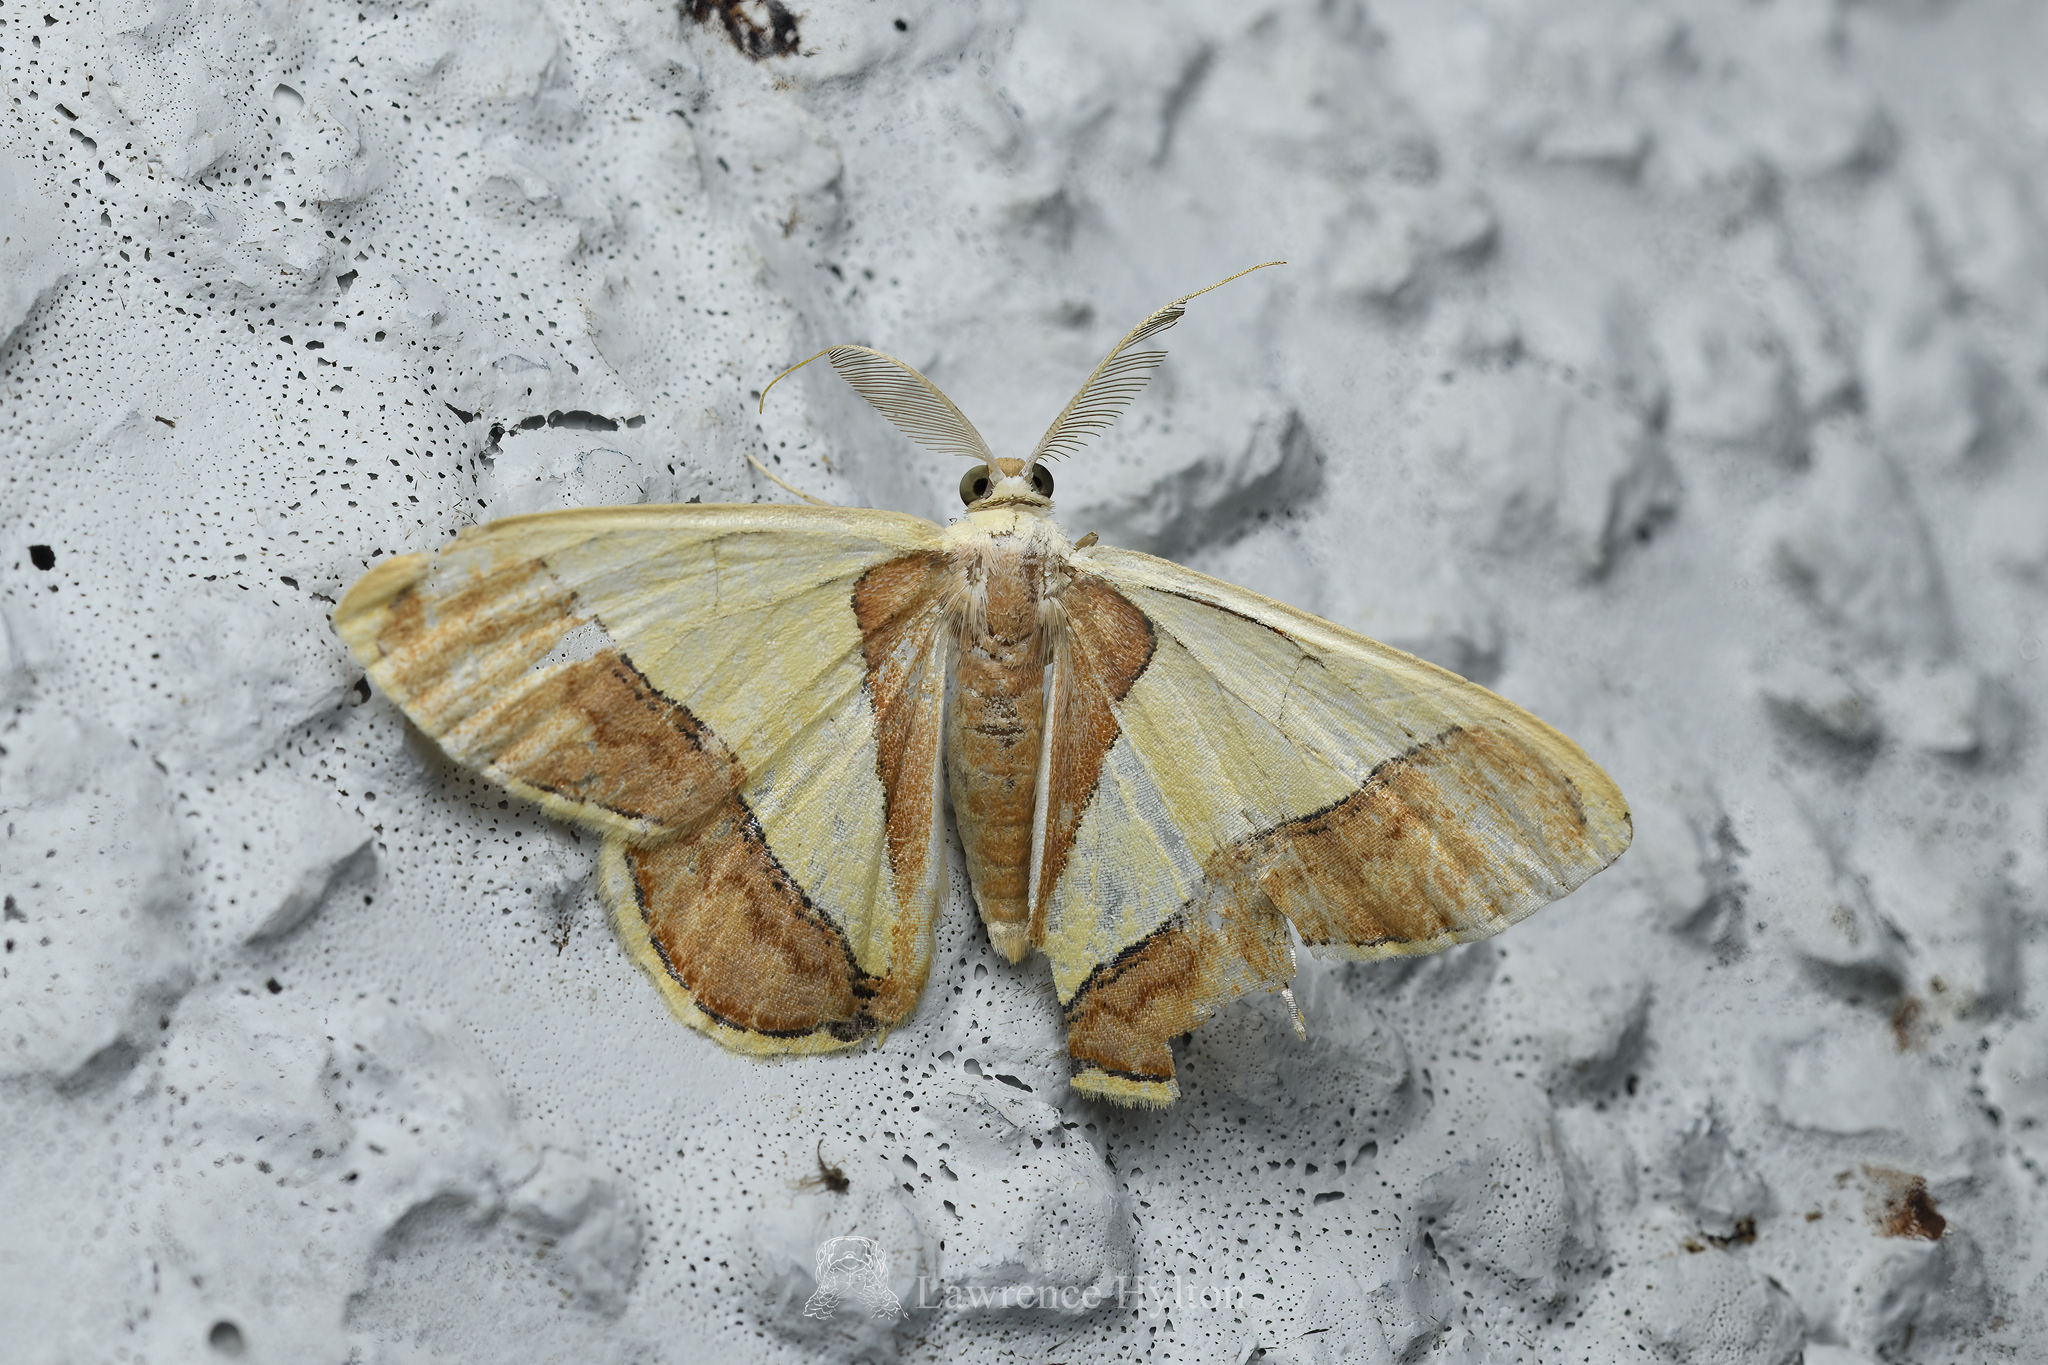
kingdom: Animalia
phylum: Arthropoda
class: Insecta
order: Lepidoptera
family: Geometridae
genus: Plutodes
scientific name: Plutodes exquisita
